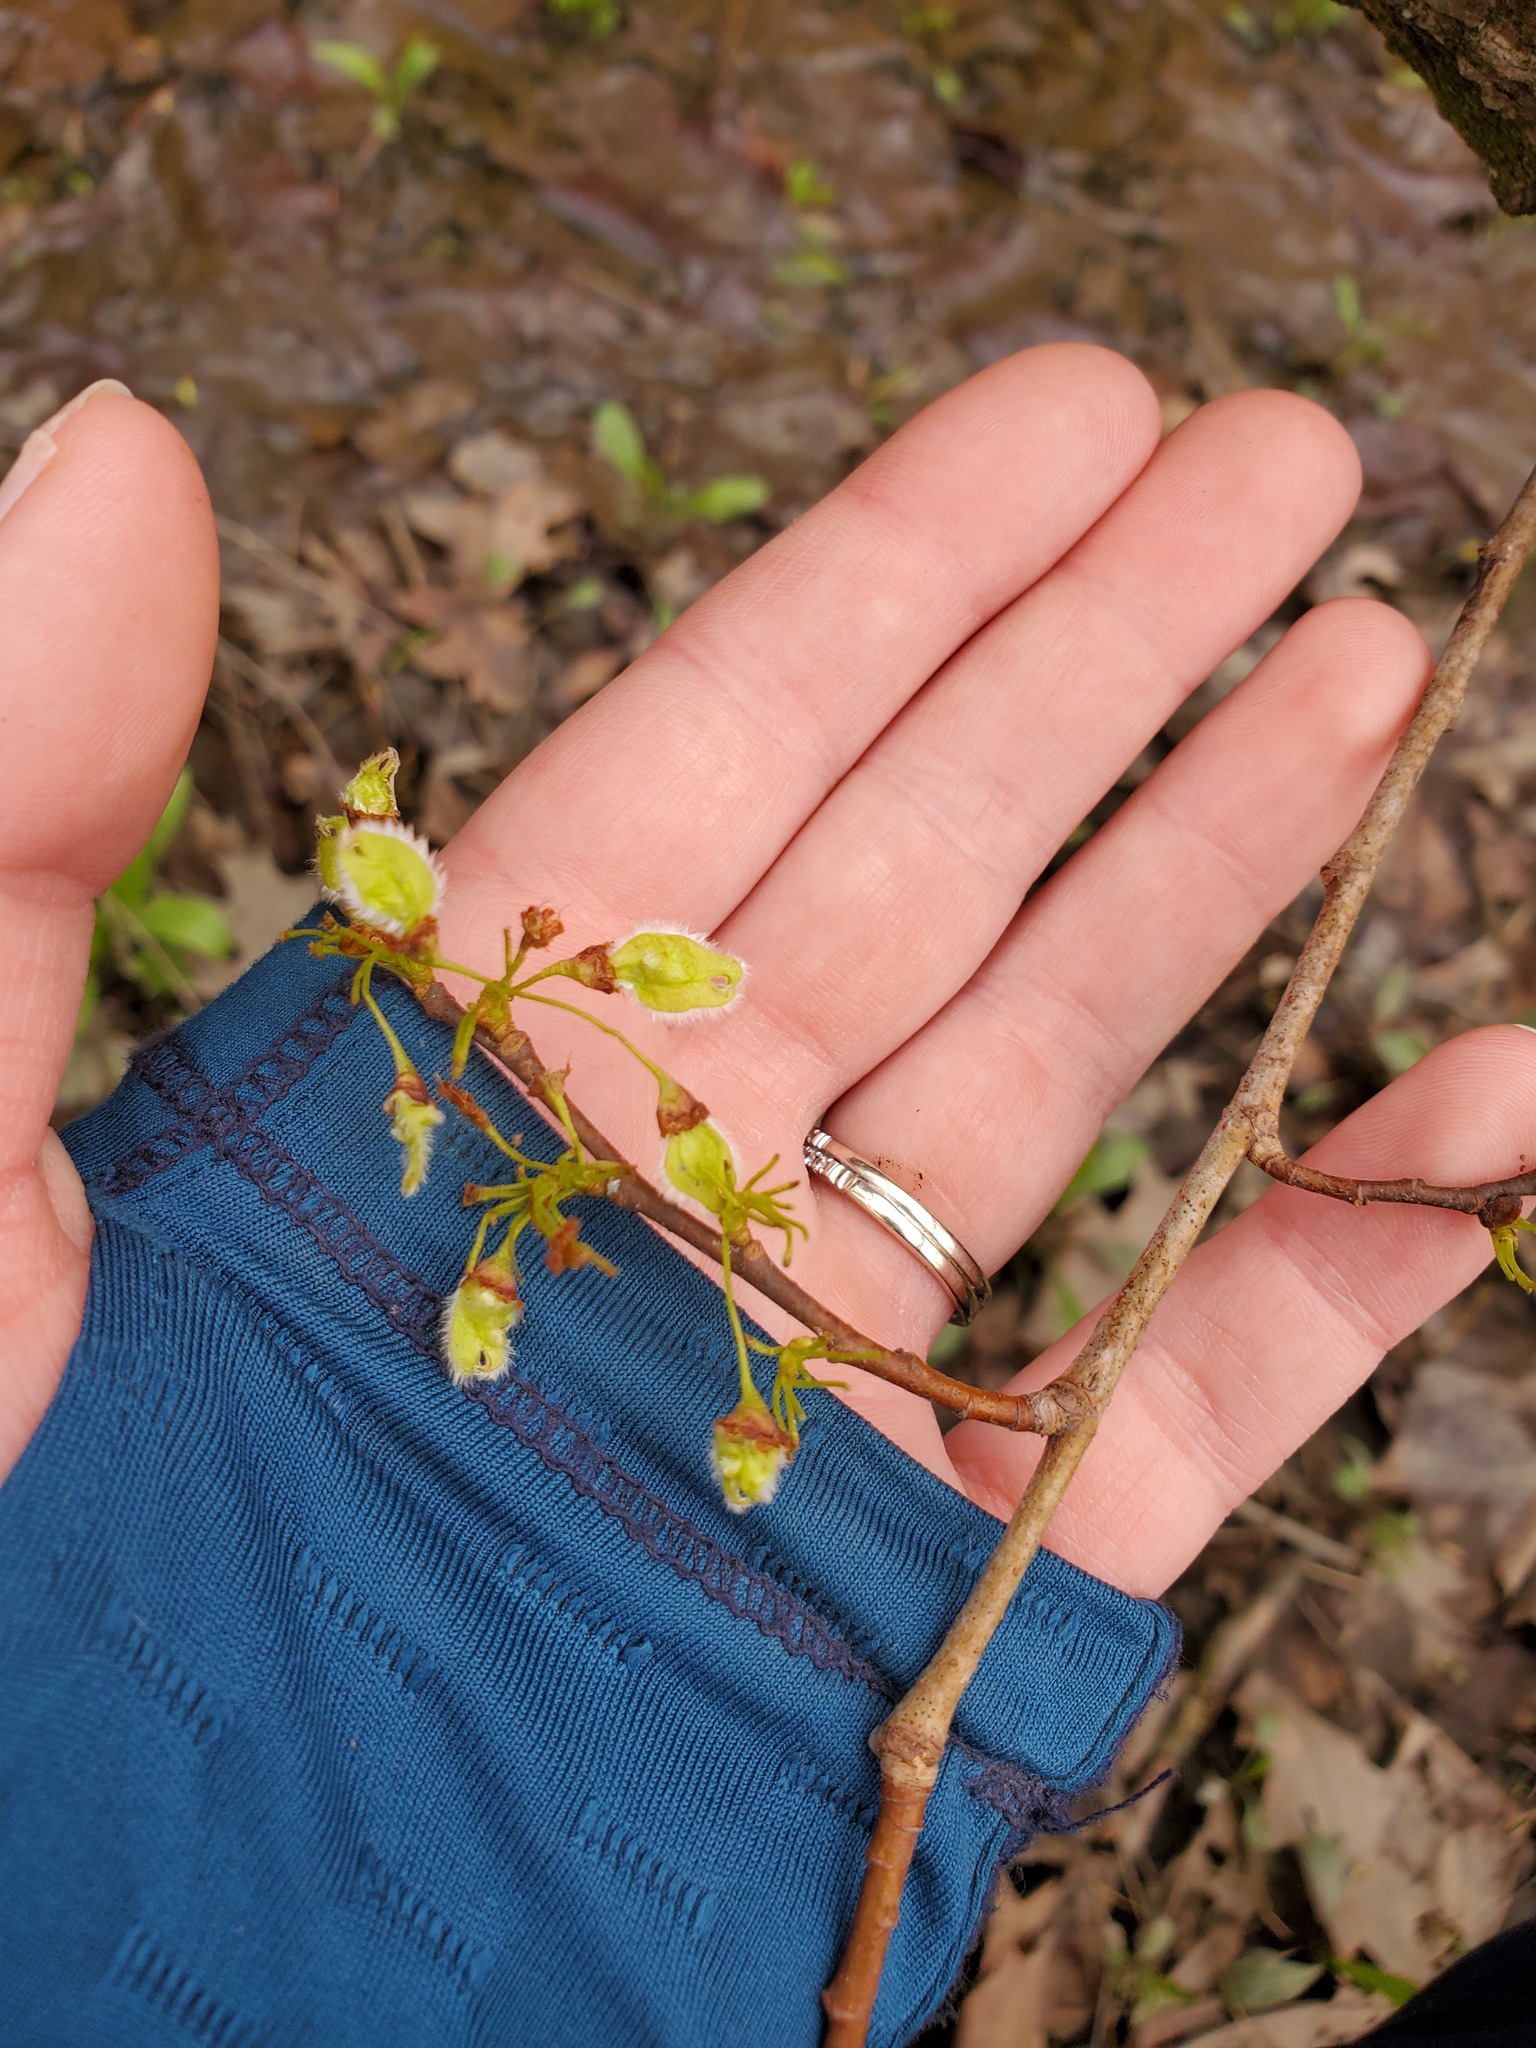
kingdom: Plantae
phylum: Tracheophyta
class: Magnoliopsida
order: Rosales
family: Ulmaceae
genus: Ulmus
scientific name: Ulmus americana
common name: American elm
